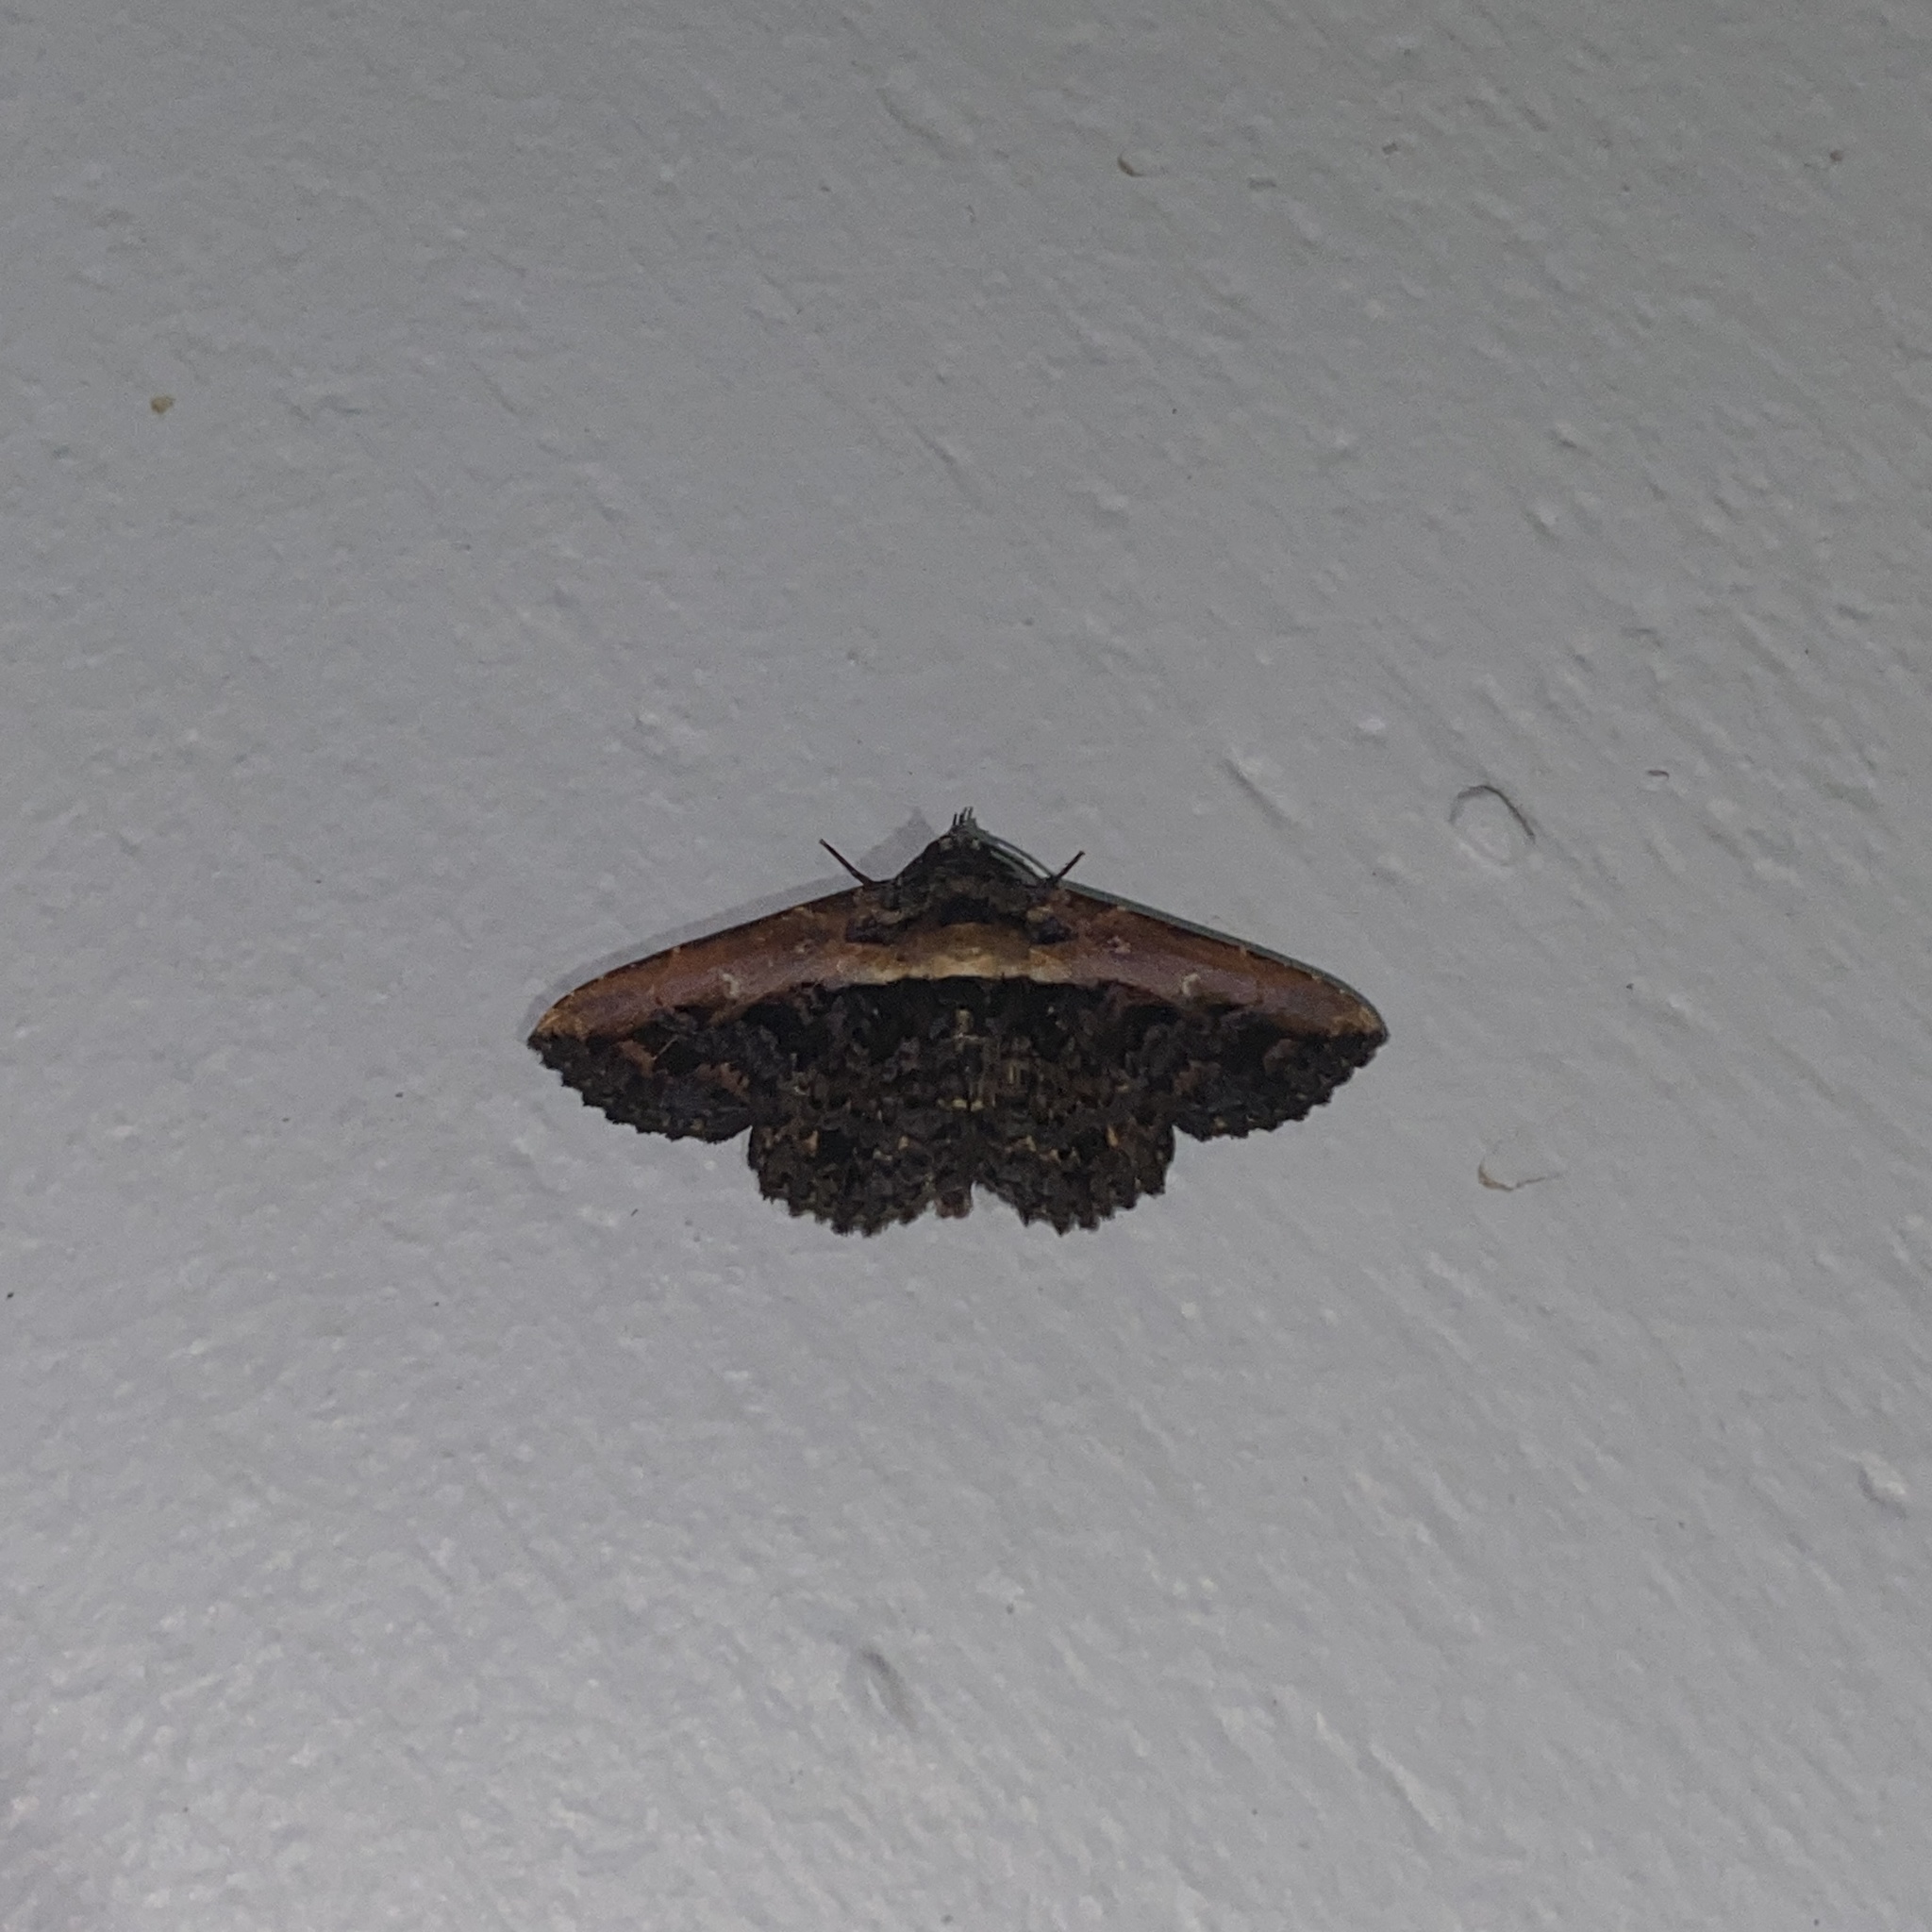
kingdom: Animalia
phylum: Arthropoda
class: Insecta
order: Lepidoptera
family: Erebidae
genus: Selenisa
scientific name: Selenisa lanipes
